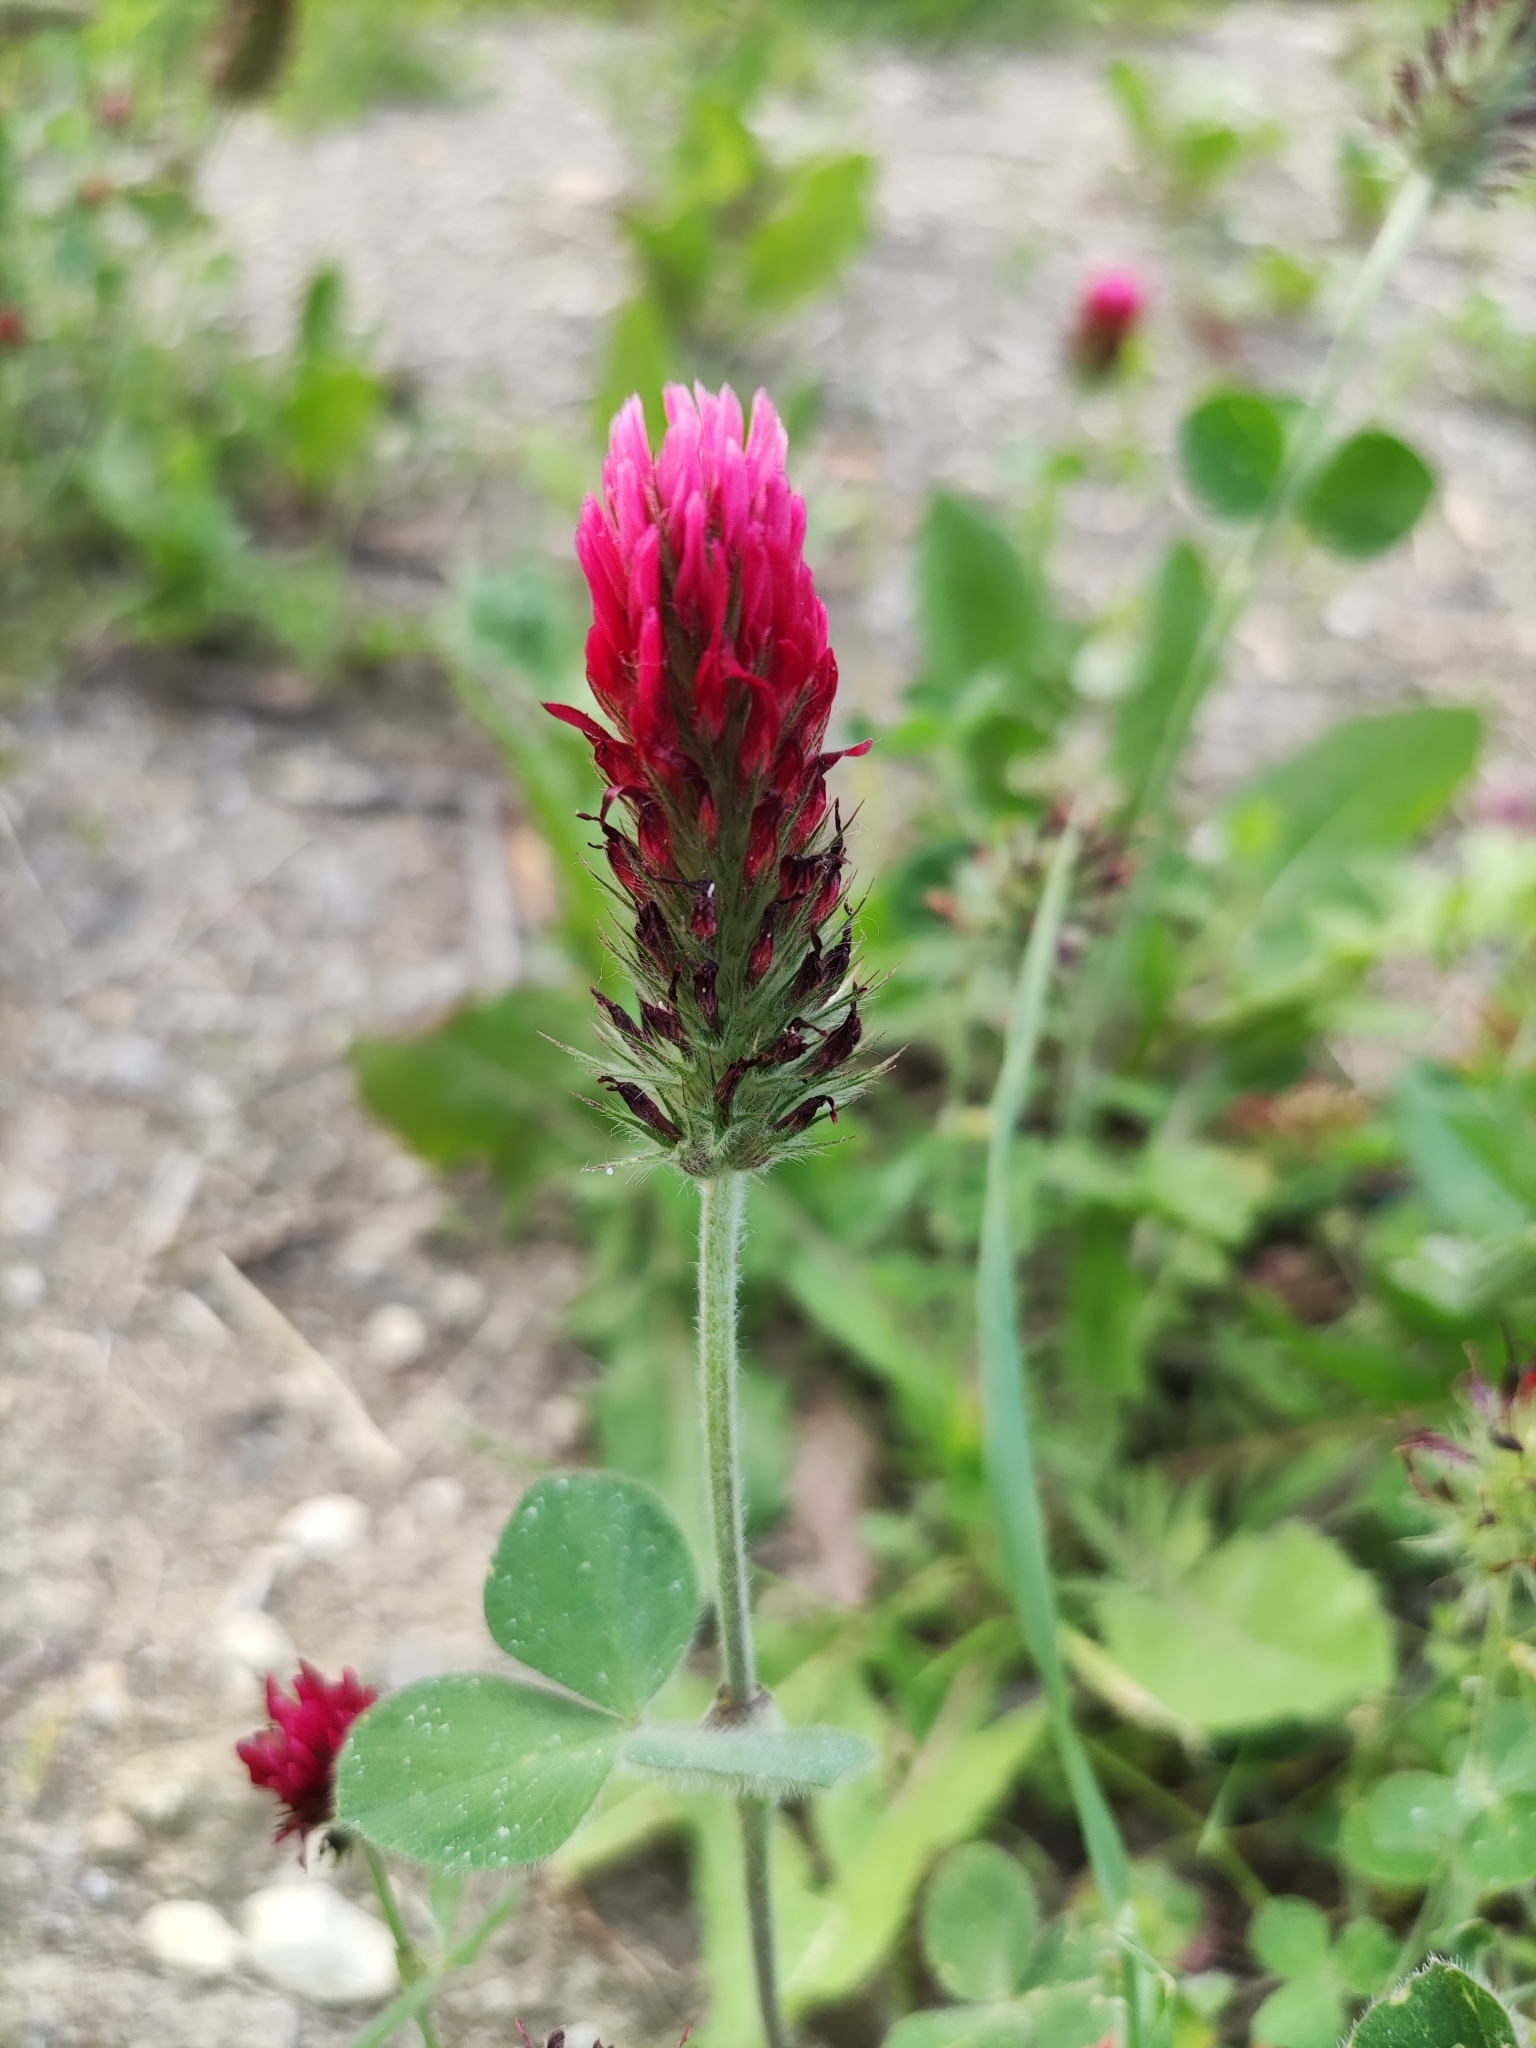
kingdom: Plantae
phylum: Tracheophyta
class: Magnoliopsida
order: Fabales
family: Fabaceae
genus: Trifolium
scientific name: Trifolium incarnatum
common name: Crimson clover
